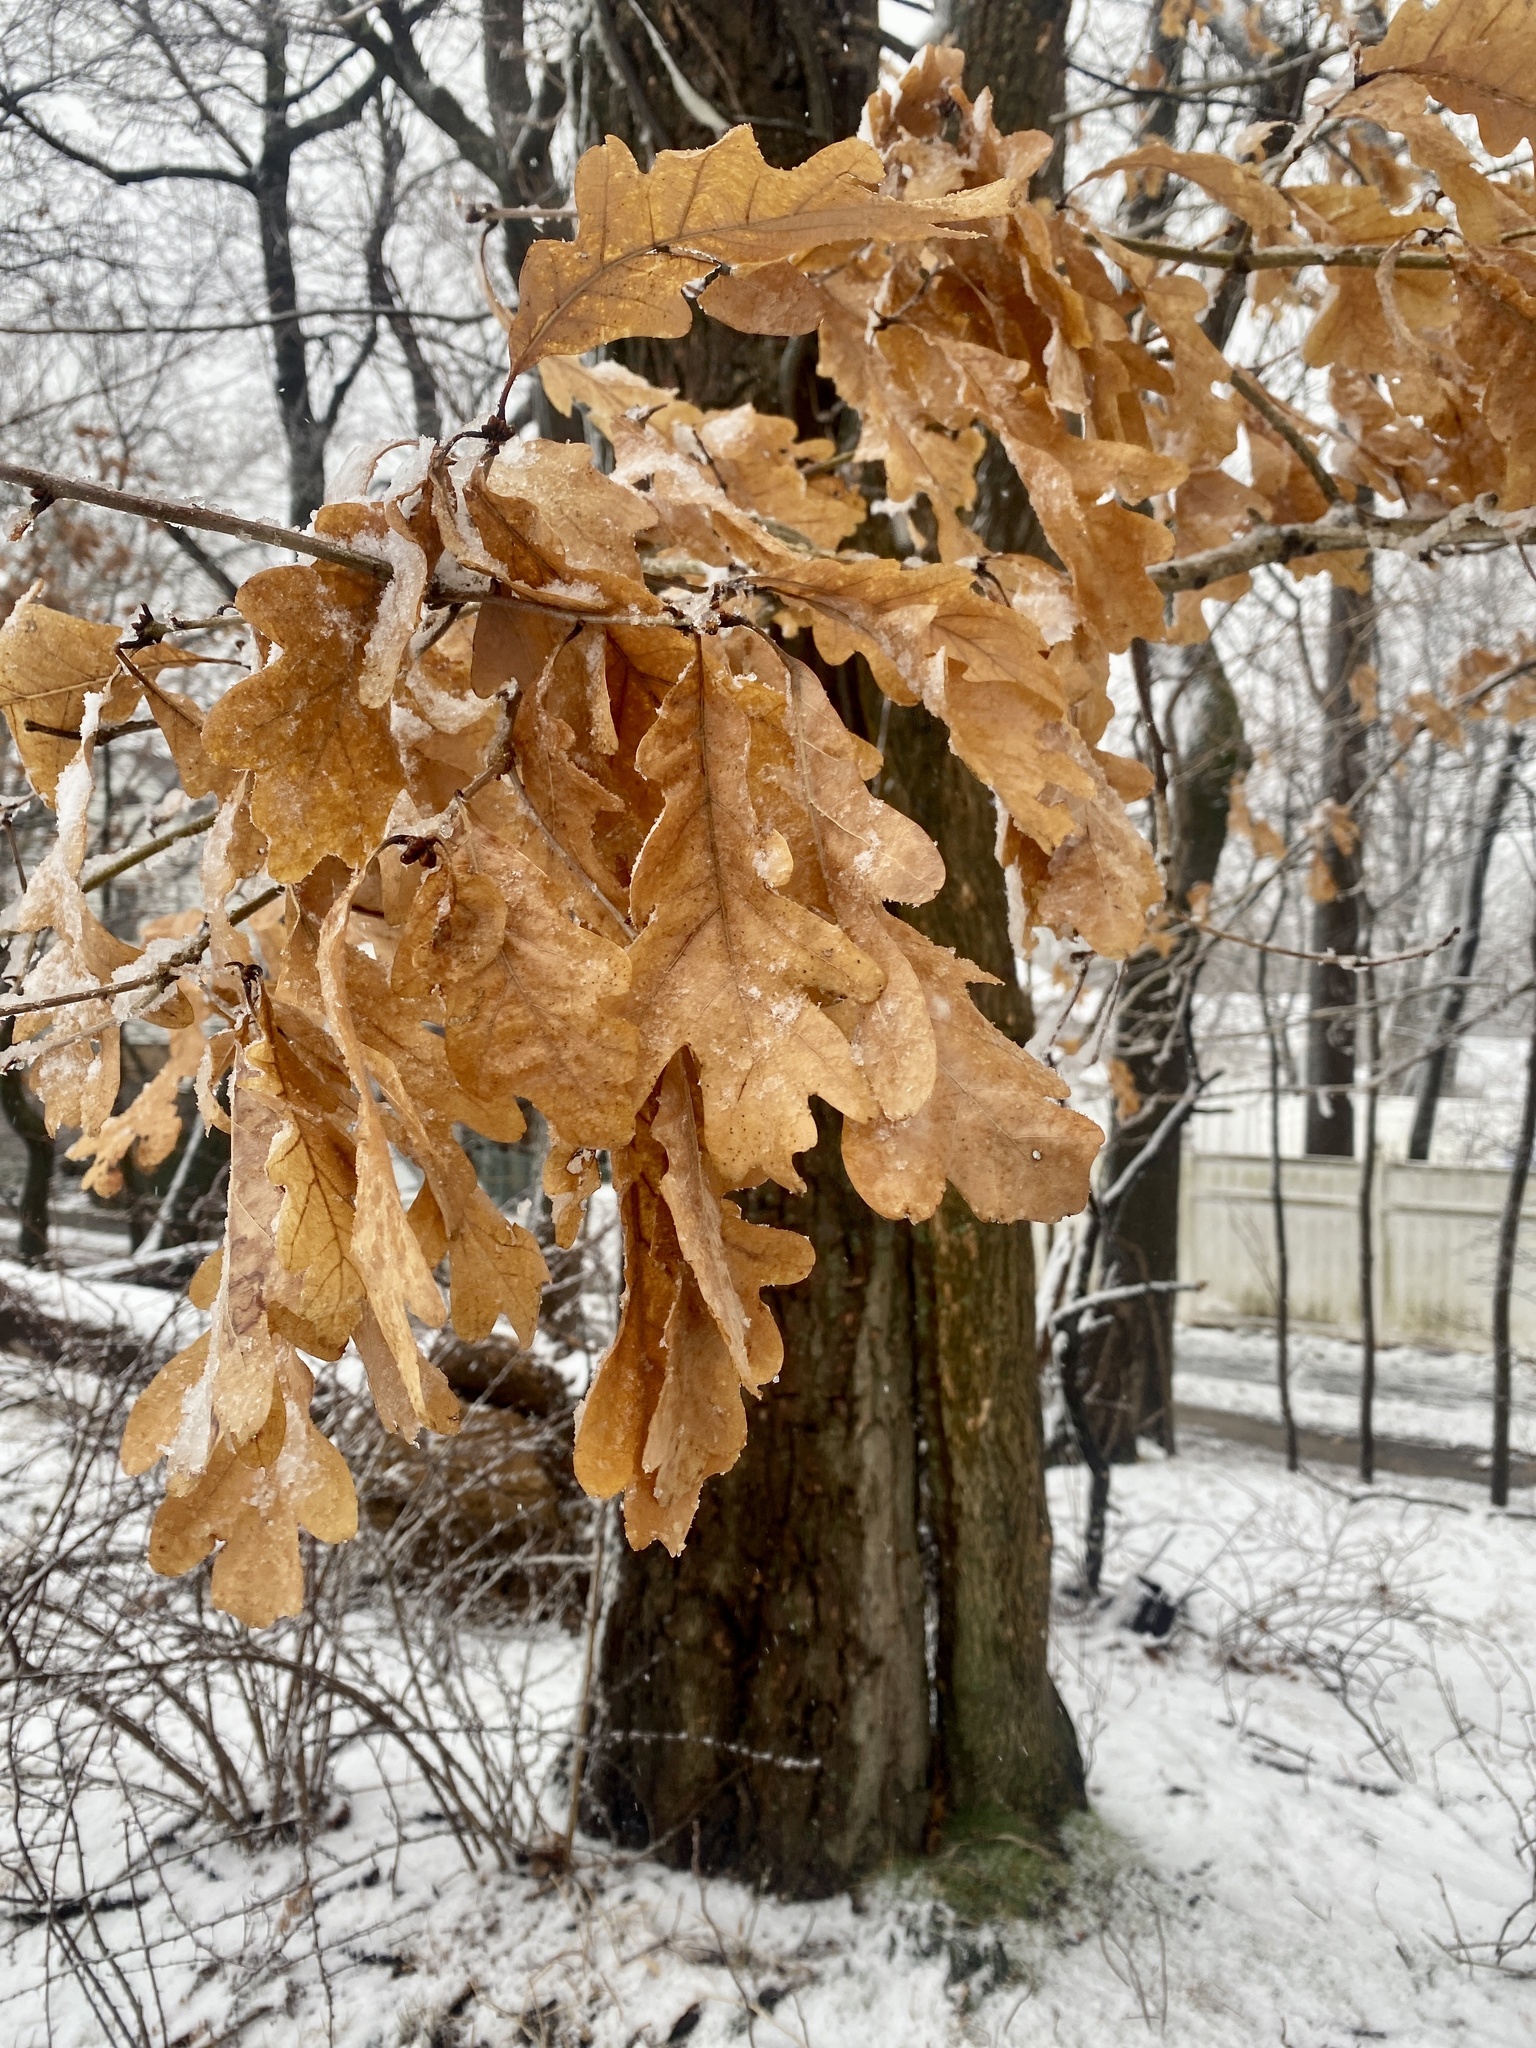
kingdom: Plantae
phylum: Tracheophyta
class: Magnoliopsida
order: Fagales
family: Fagaceae
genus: Quercus
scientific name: Quercus alba
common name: White oak
